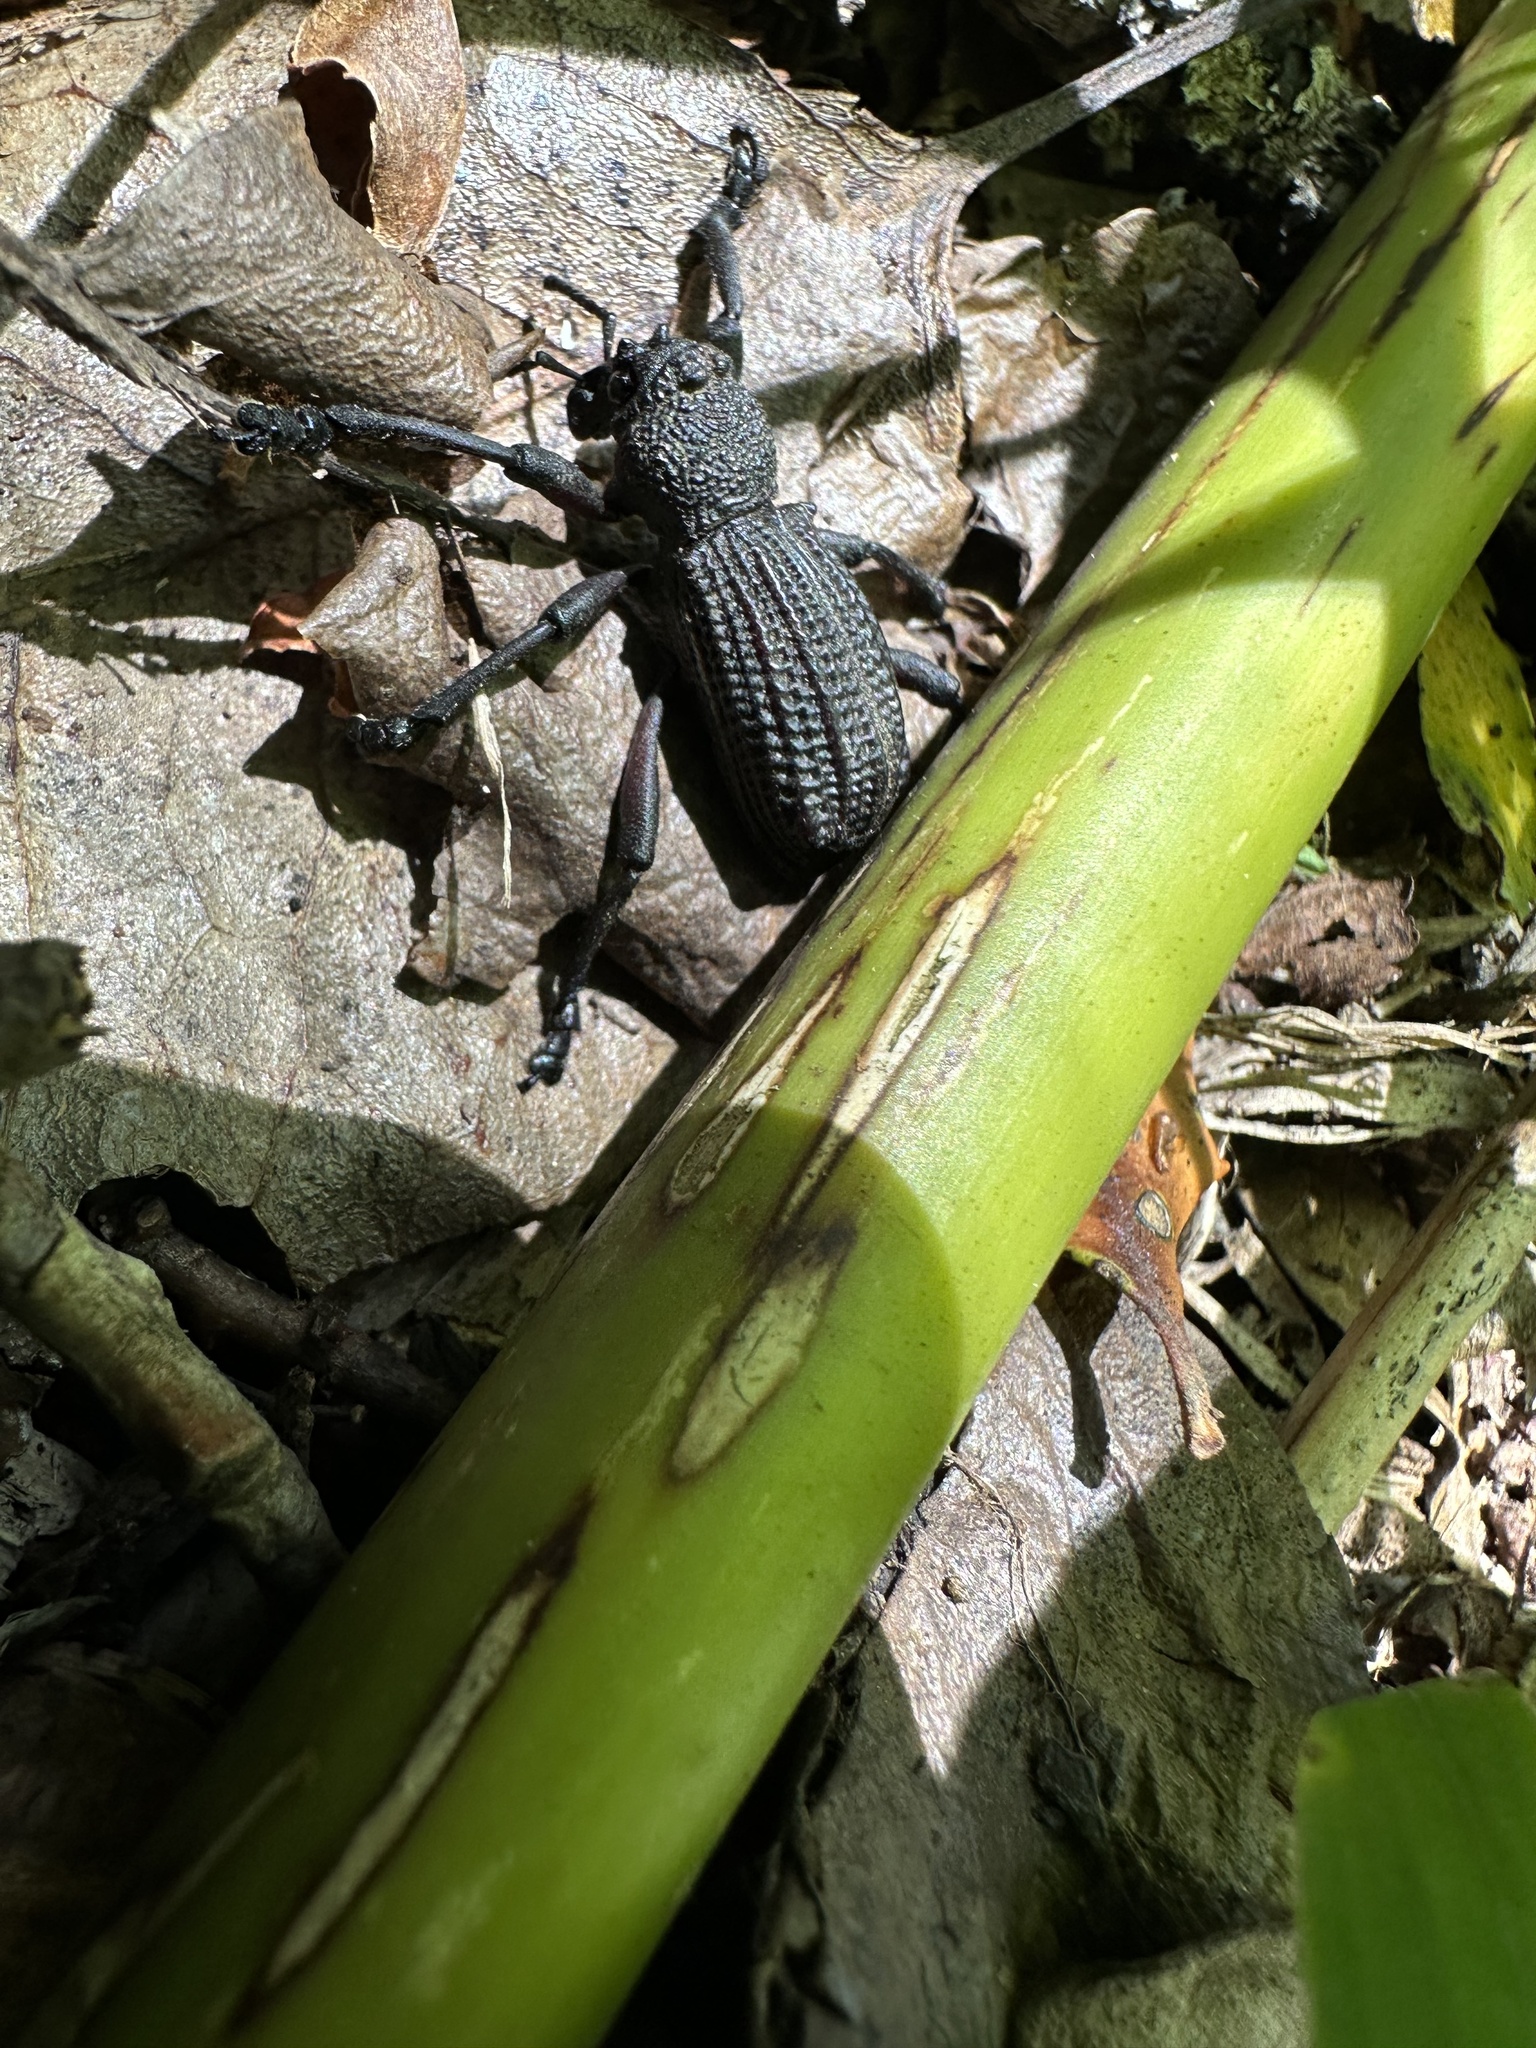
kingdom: Animalia
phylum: Arthropoda
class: Insecta
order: Coleoptera
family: Curculionidae
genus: Aegorhinus
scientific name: Aegorhinus
